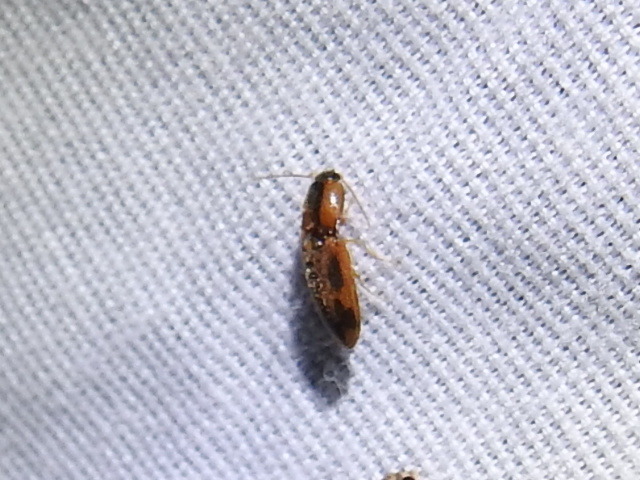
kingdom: Animalia
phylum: Arthropoda
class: Insecta
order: Coleoptera
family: Elateridae
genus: Aeolus
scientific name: Aeolus mellillus
